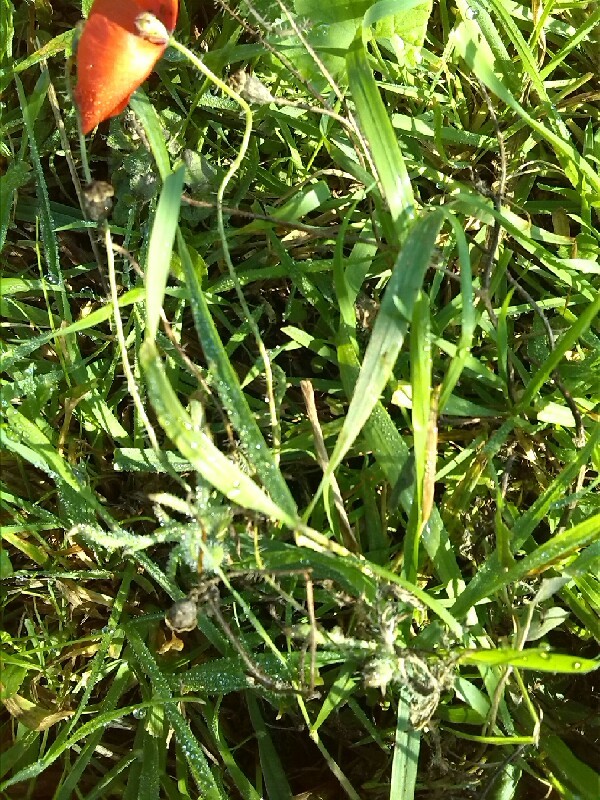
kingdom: Plantae
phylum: Tracheophyta
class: Magnoliopsida
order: Ranunculales
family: Papaveraceae
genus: Papaver
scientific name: Papaver rhoeas
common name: Corn poppy
